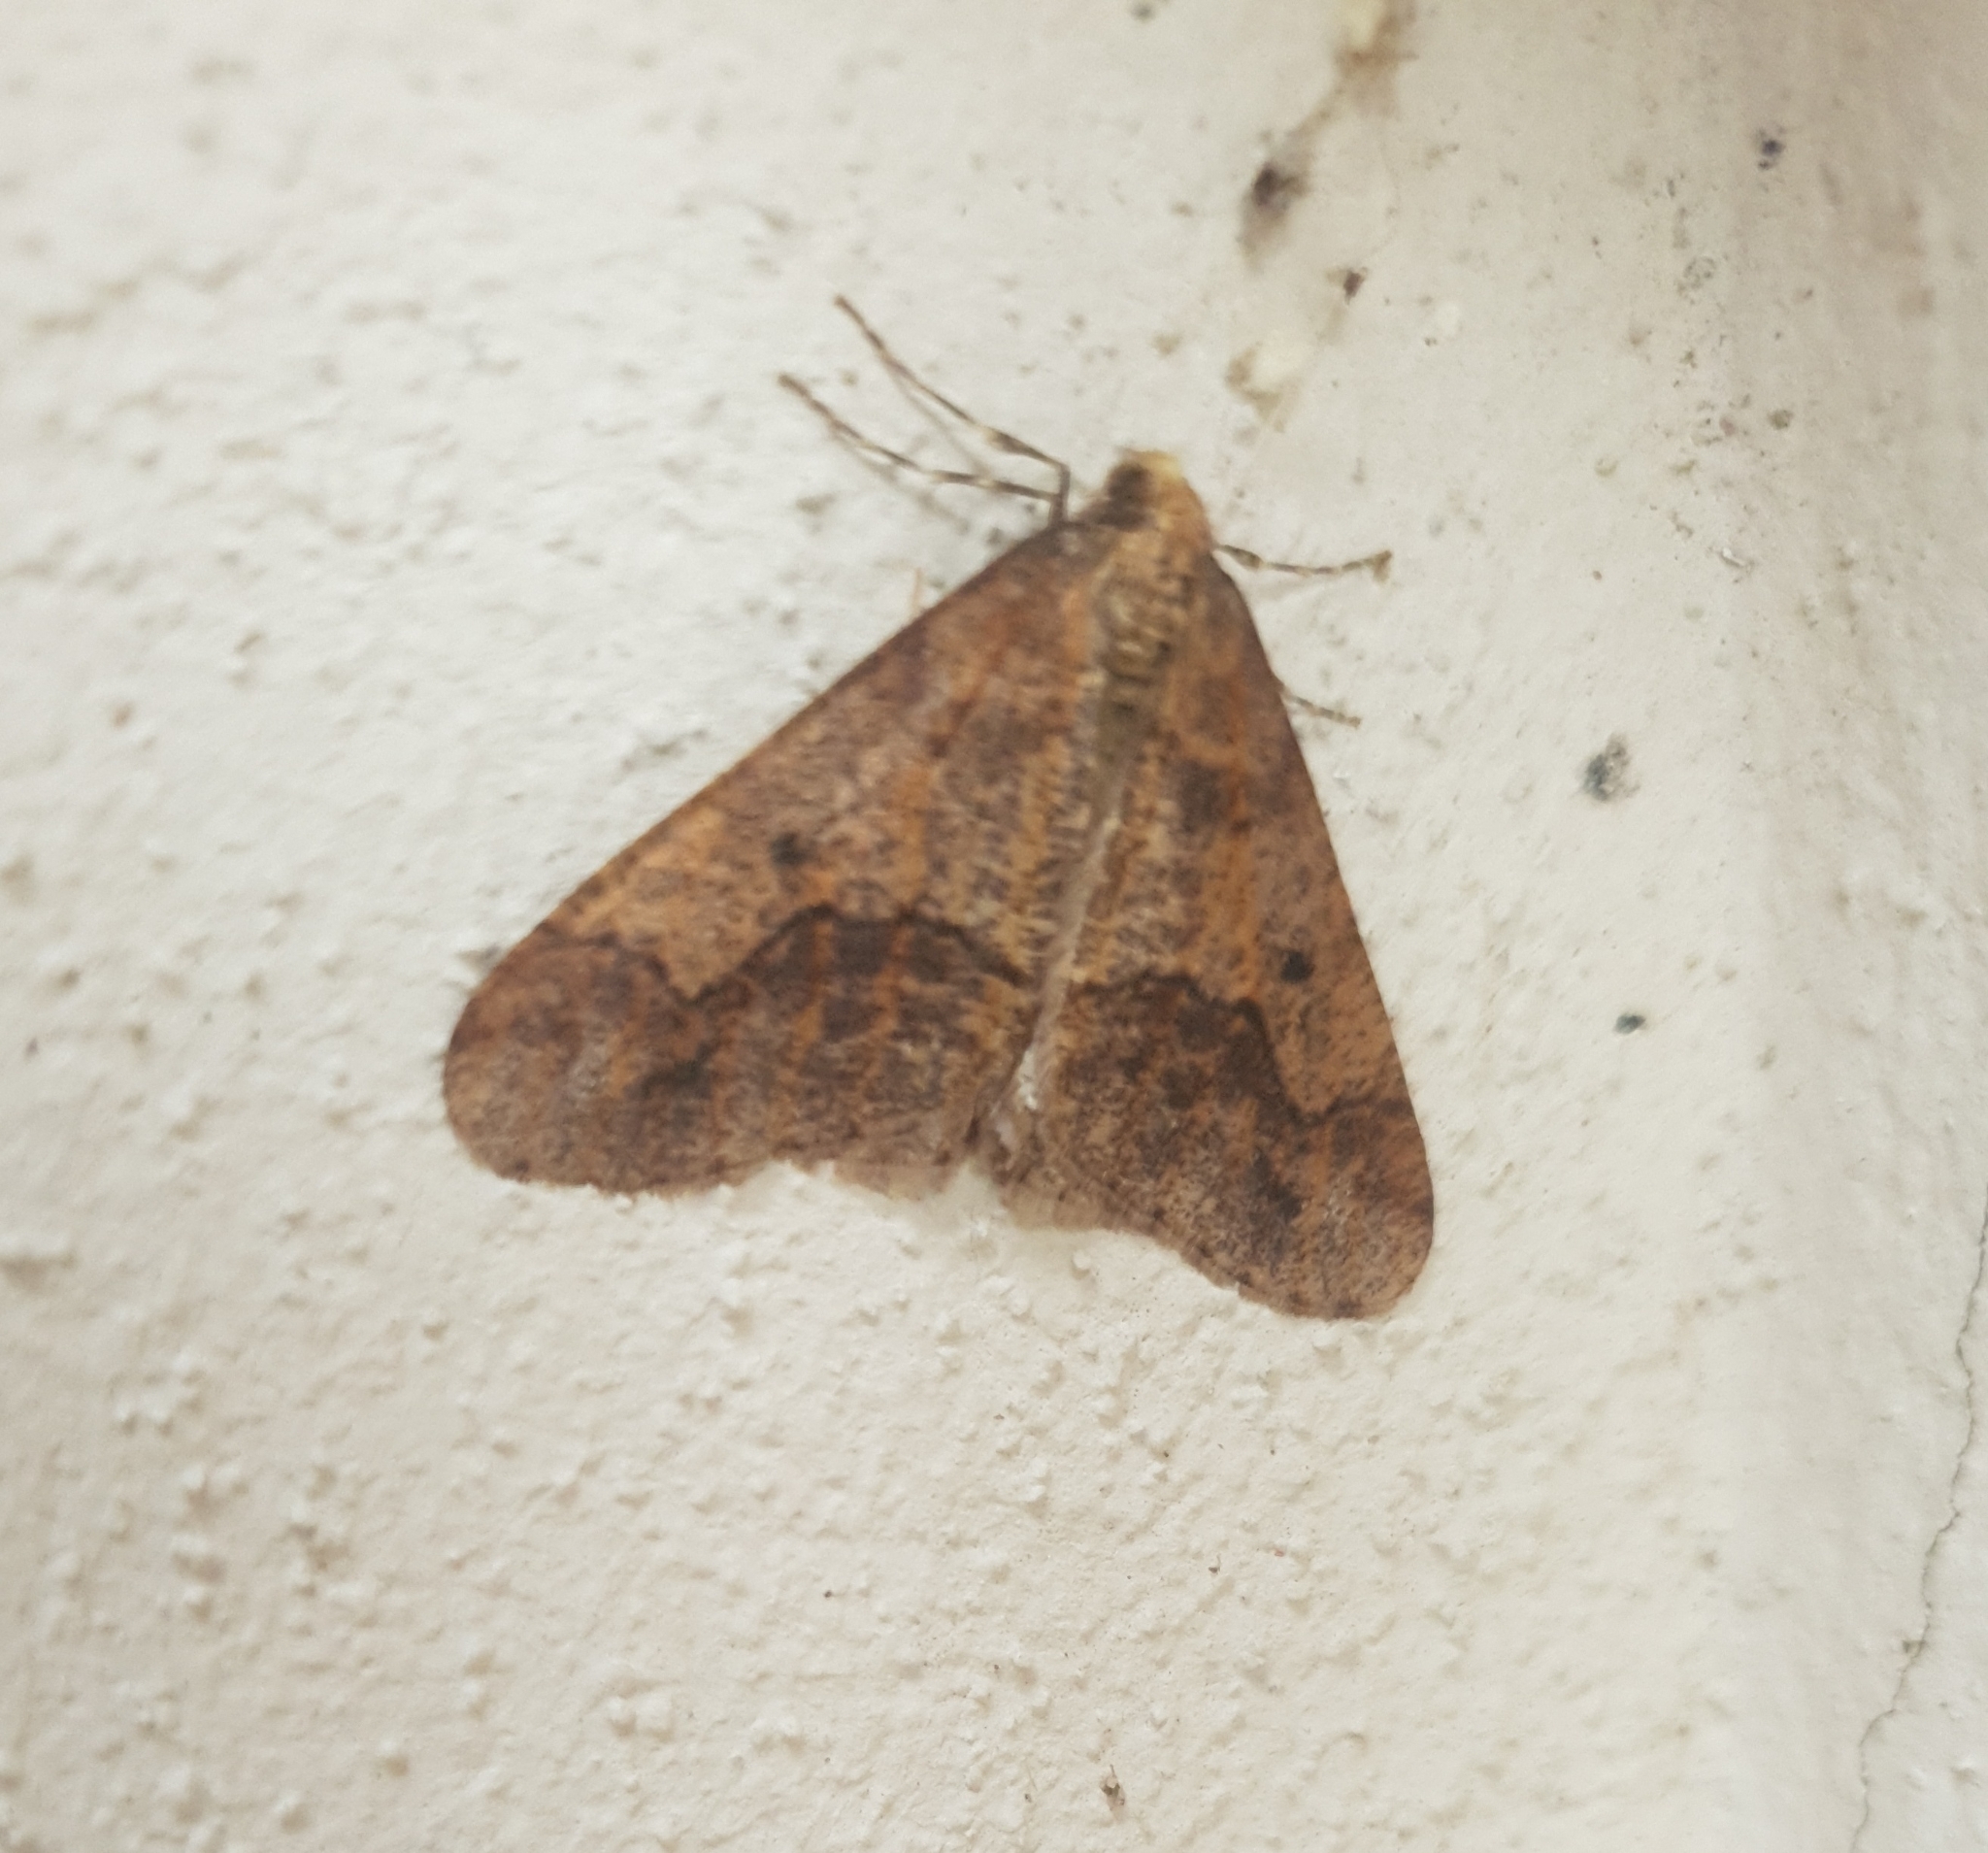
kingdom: Animalia
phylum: Arthropoda
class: Insecta
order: Lepidoptera
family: Geometridae
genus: Erannis
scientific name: Erannis defoliaria
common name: Mottled umber
